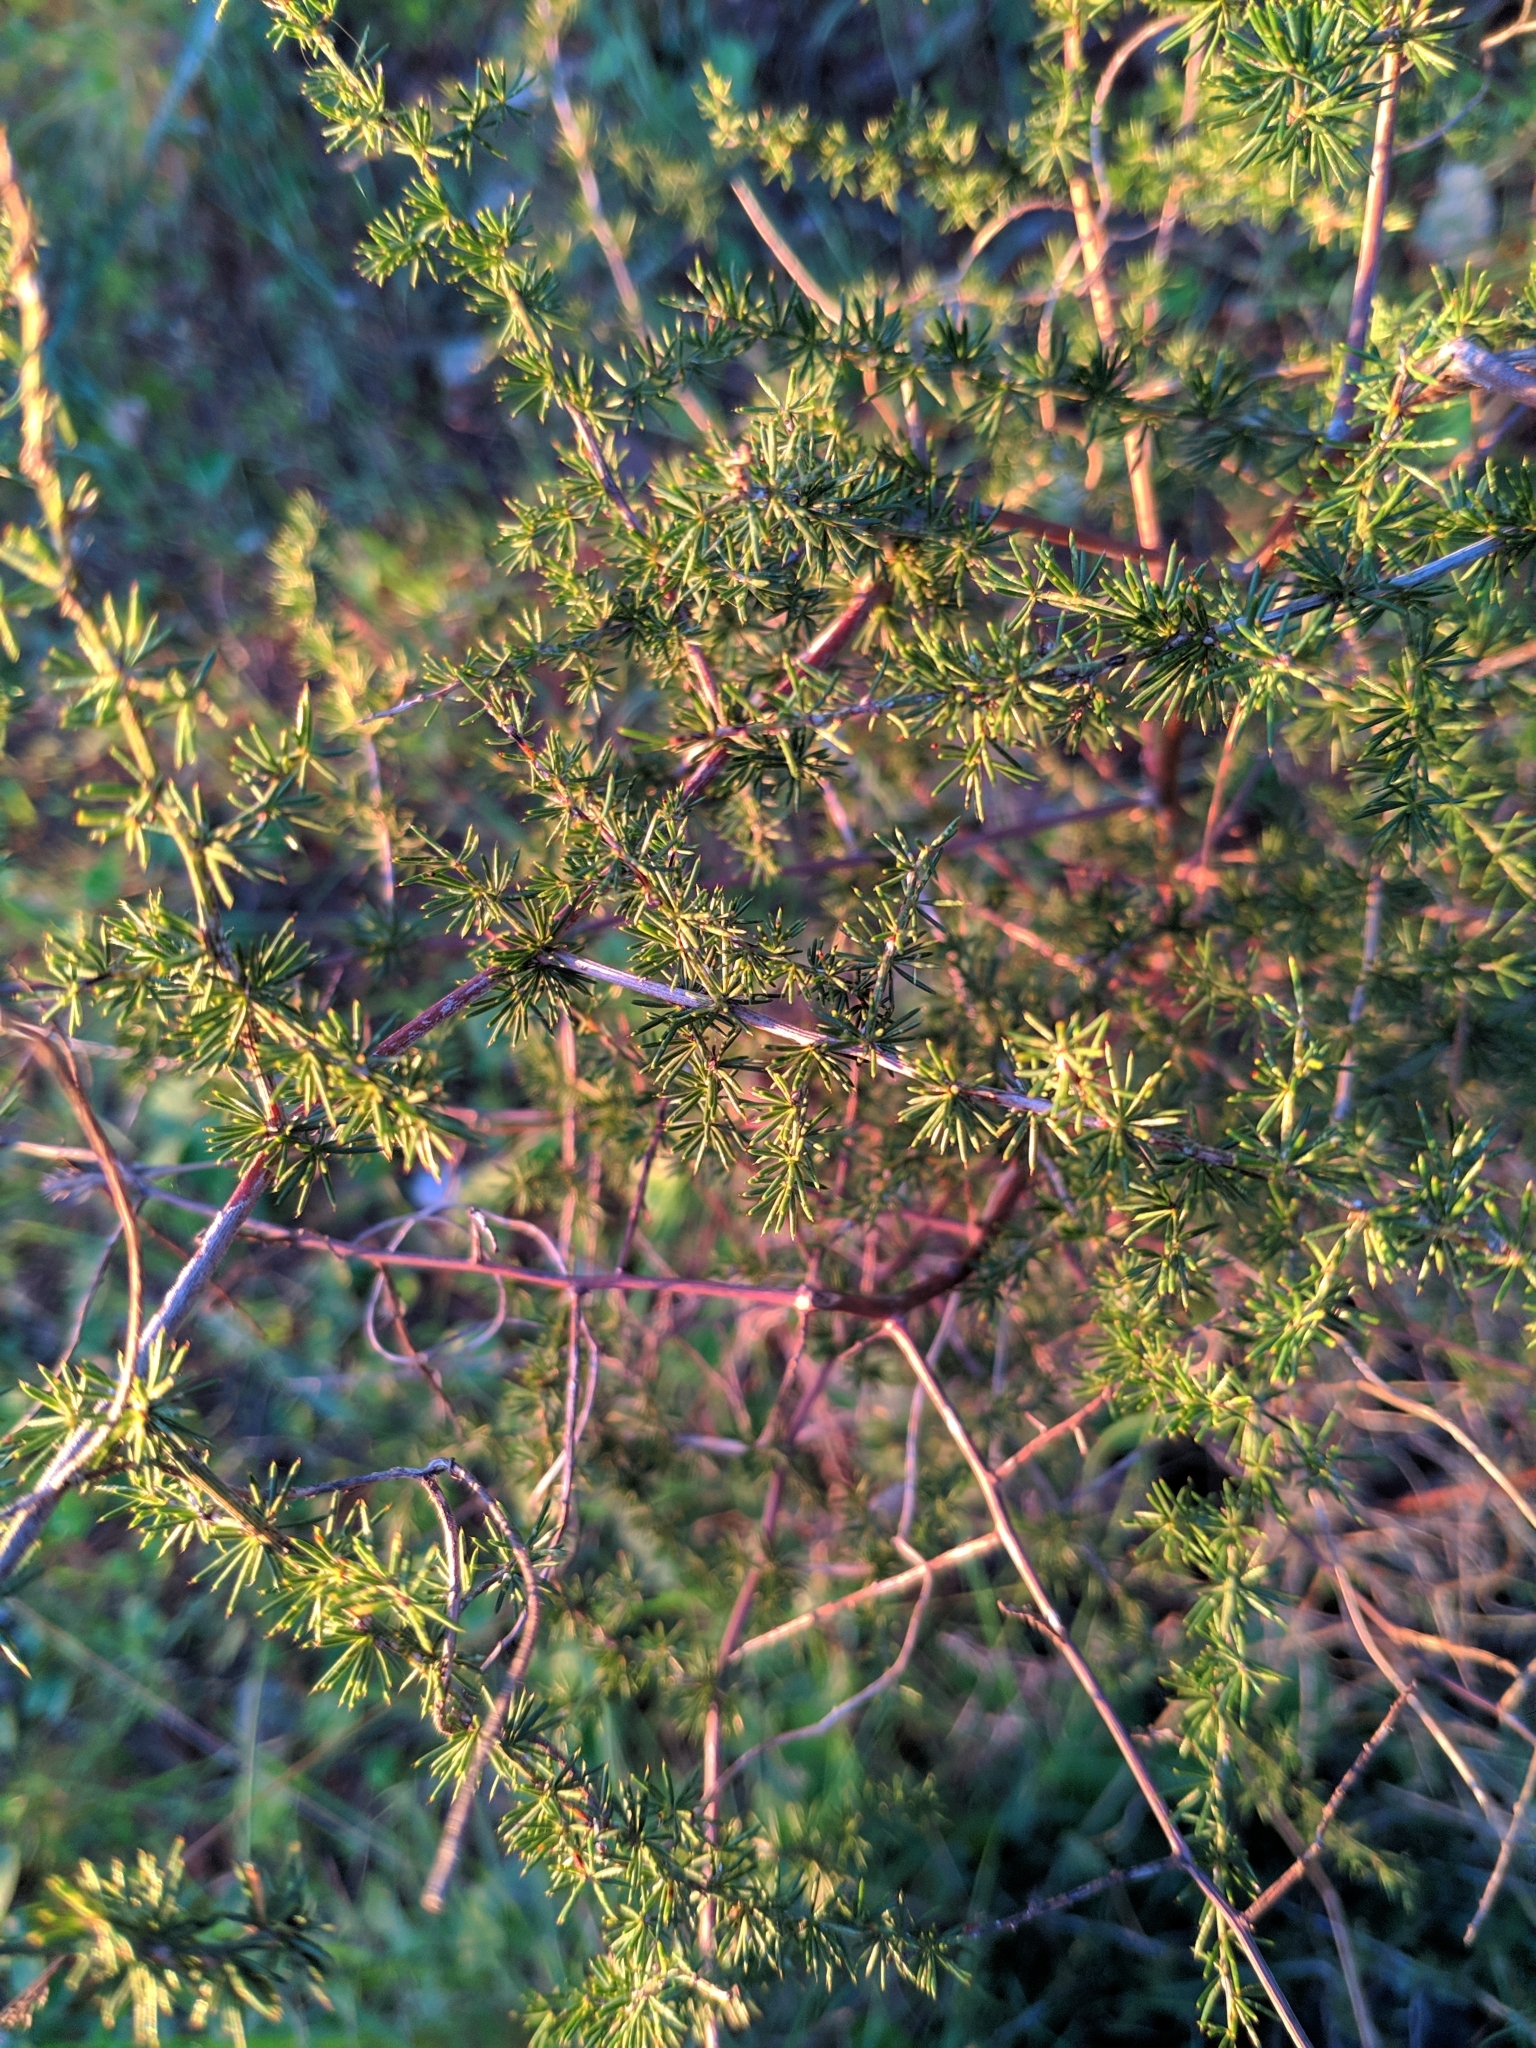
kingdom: Plantae
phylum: Tracheophyta
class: Liliopsida
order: Asparagales
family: Asparagaceae
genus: Asparagus
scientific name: Asparagus acutifolius
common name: Wild asparagus
